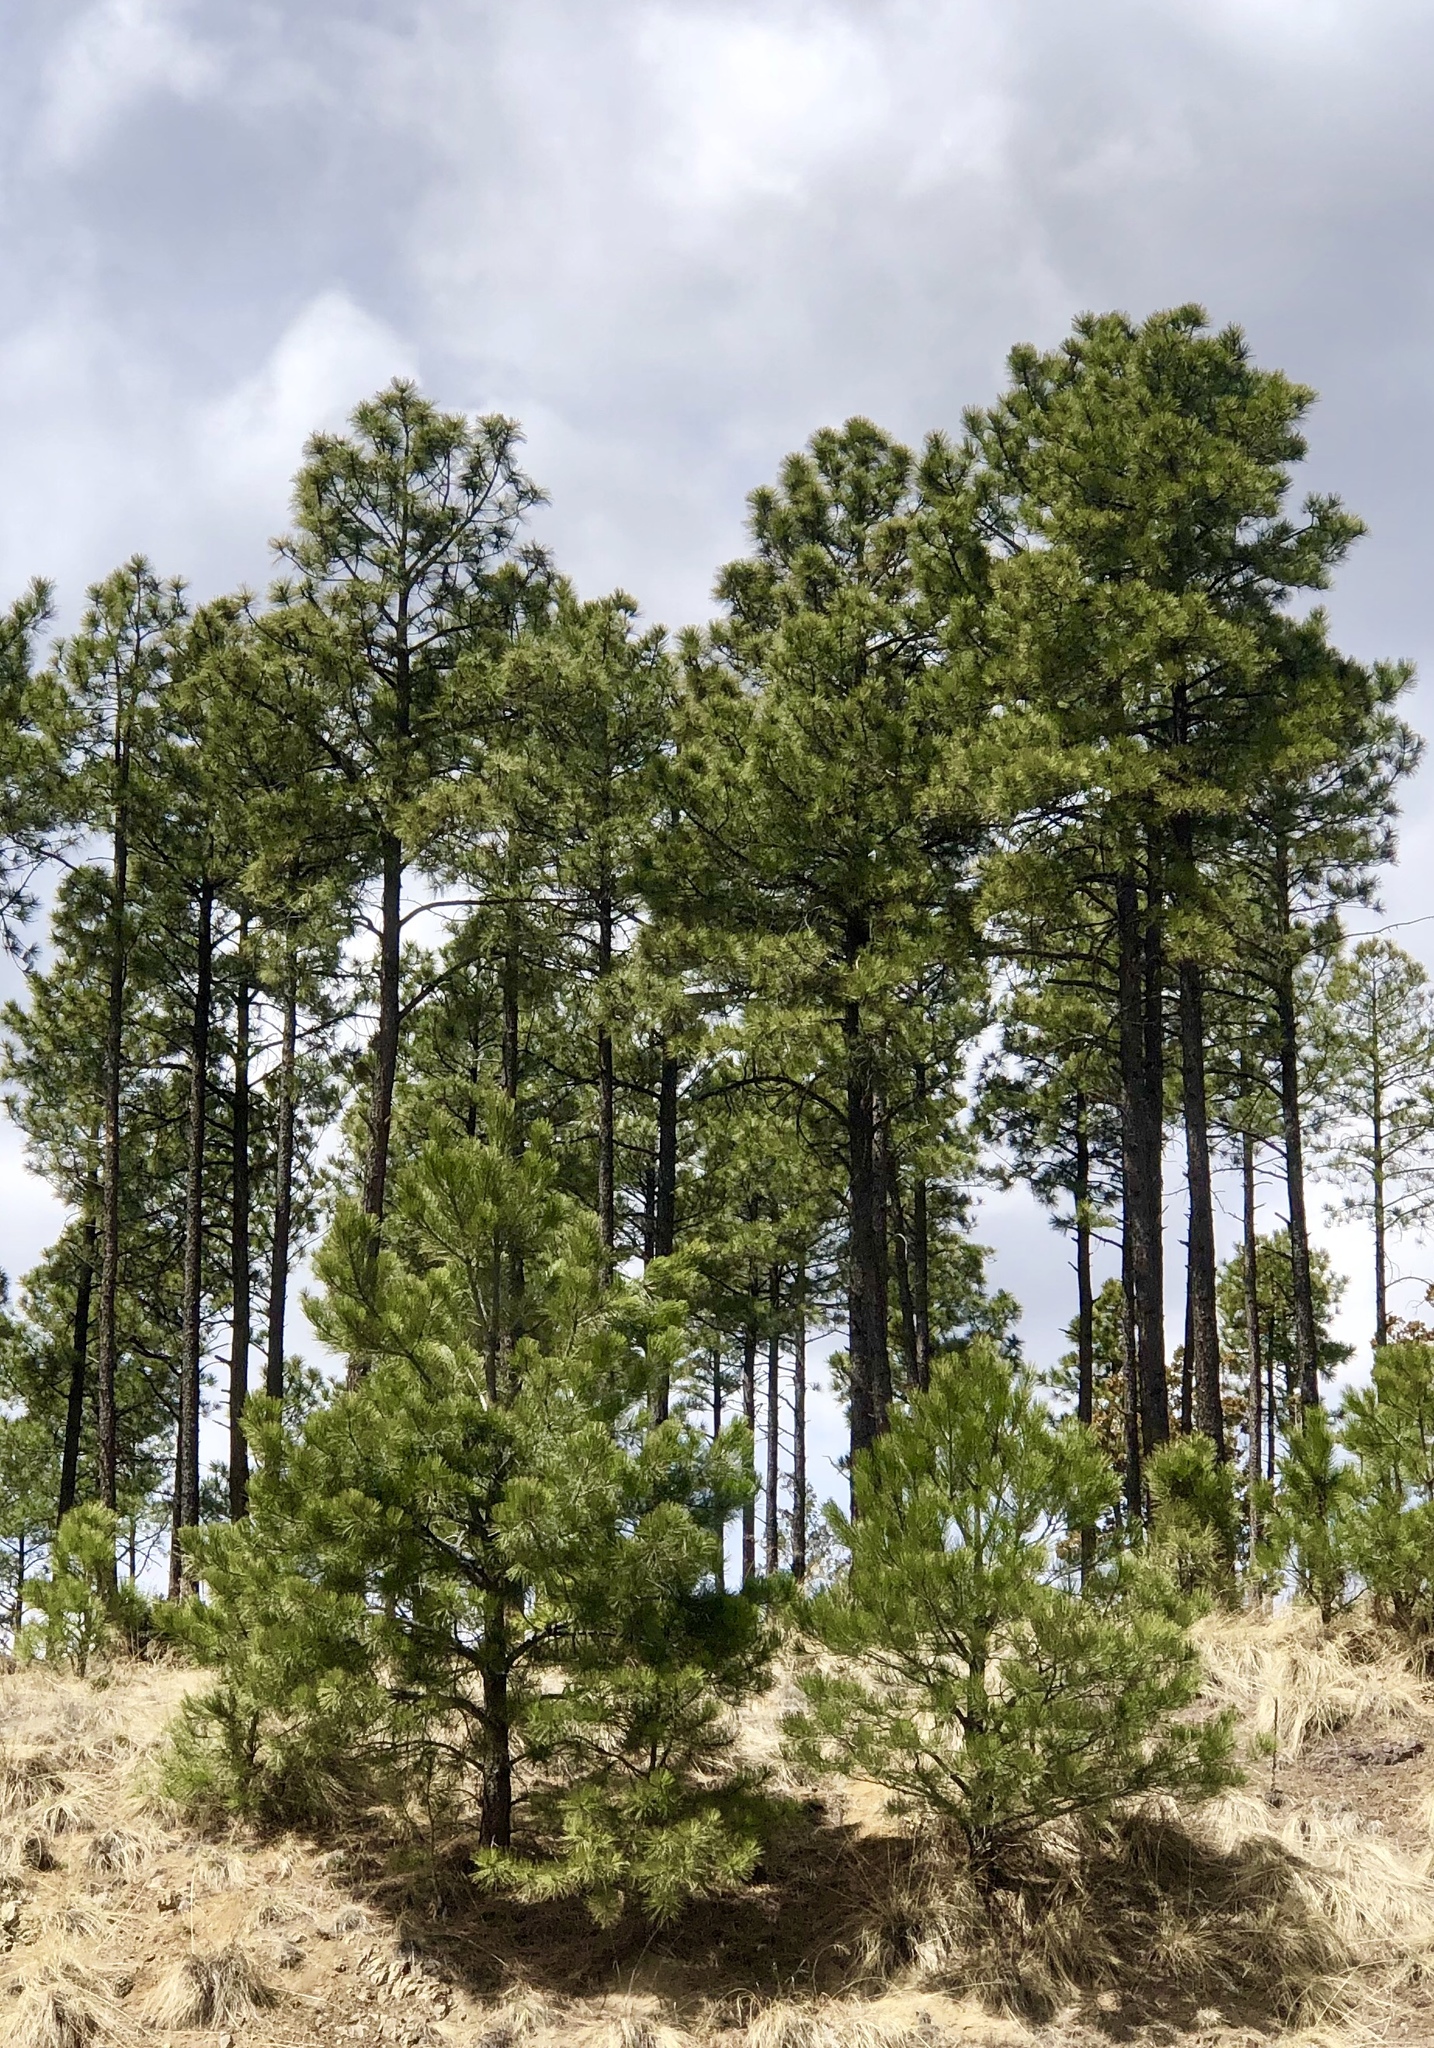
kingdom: Plantae
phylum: Tracheophyta
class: Pinopsida
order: Pinales
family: Pinaceae
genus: Pinus
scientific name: Pinus ponderosa
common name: Western yellow-pine
